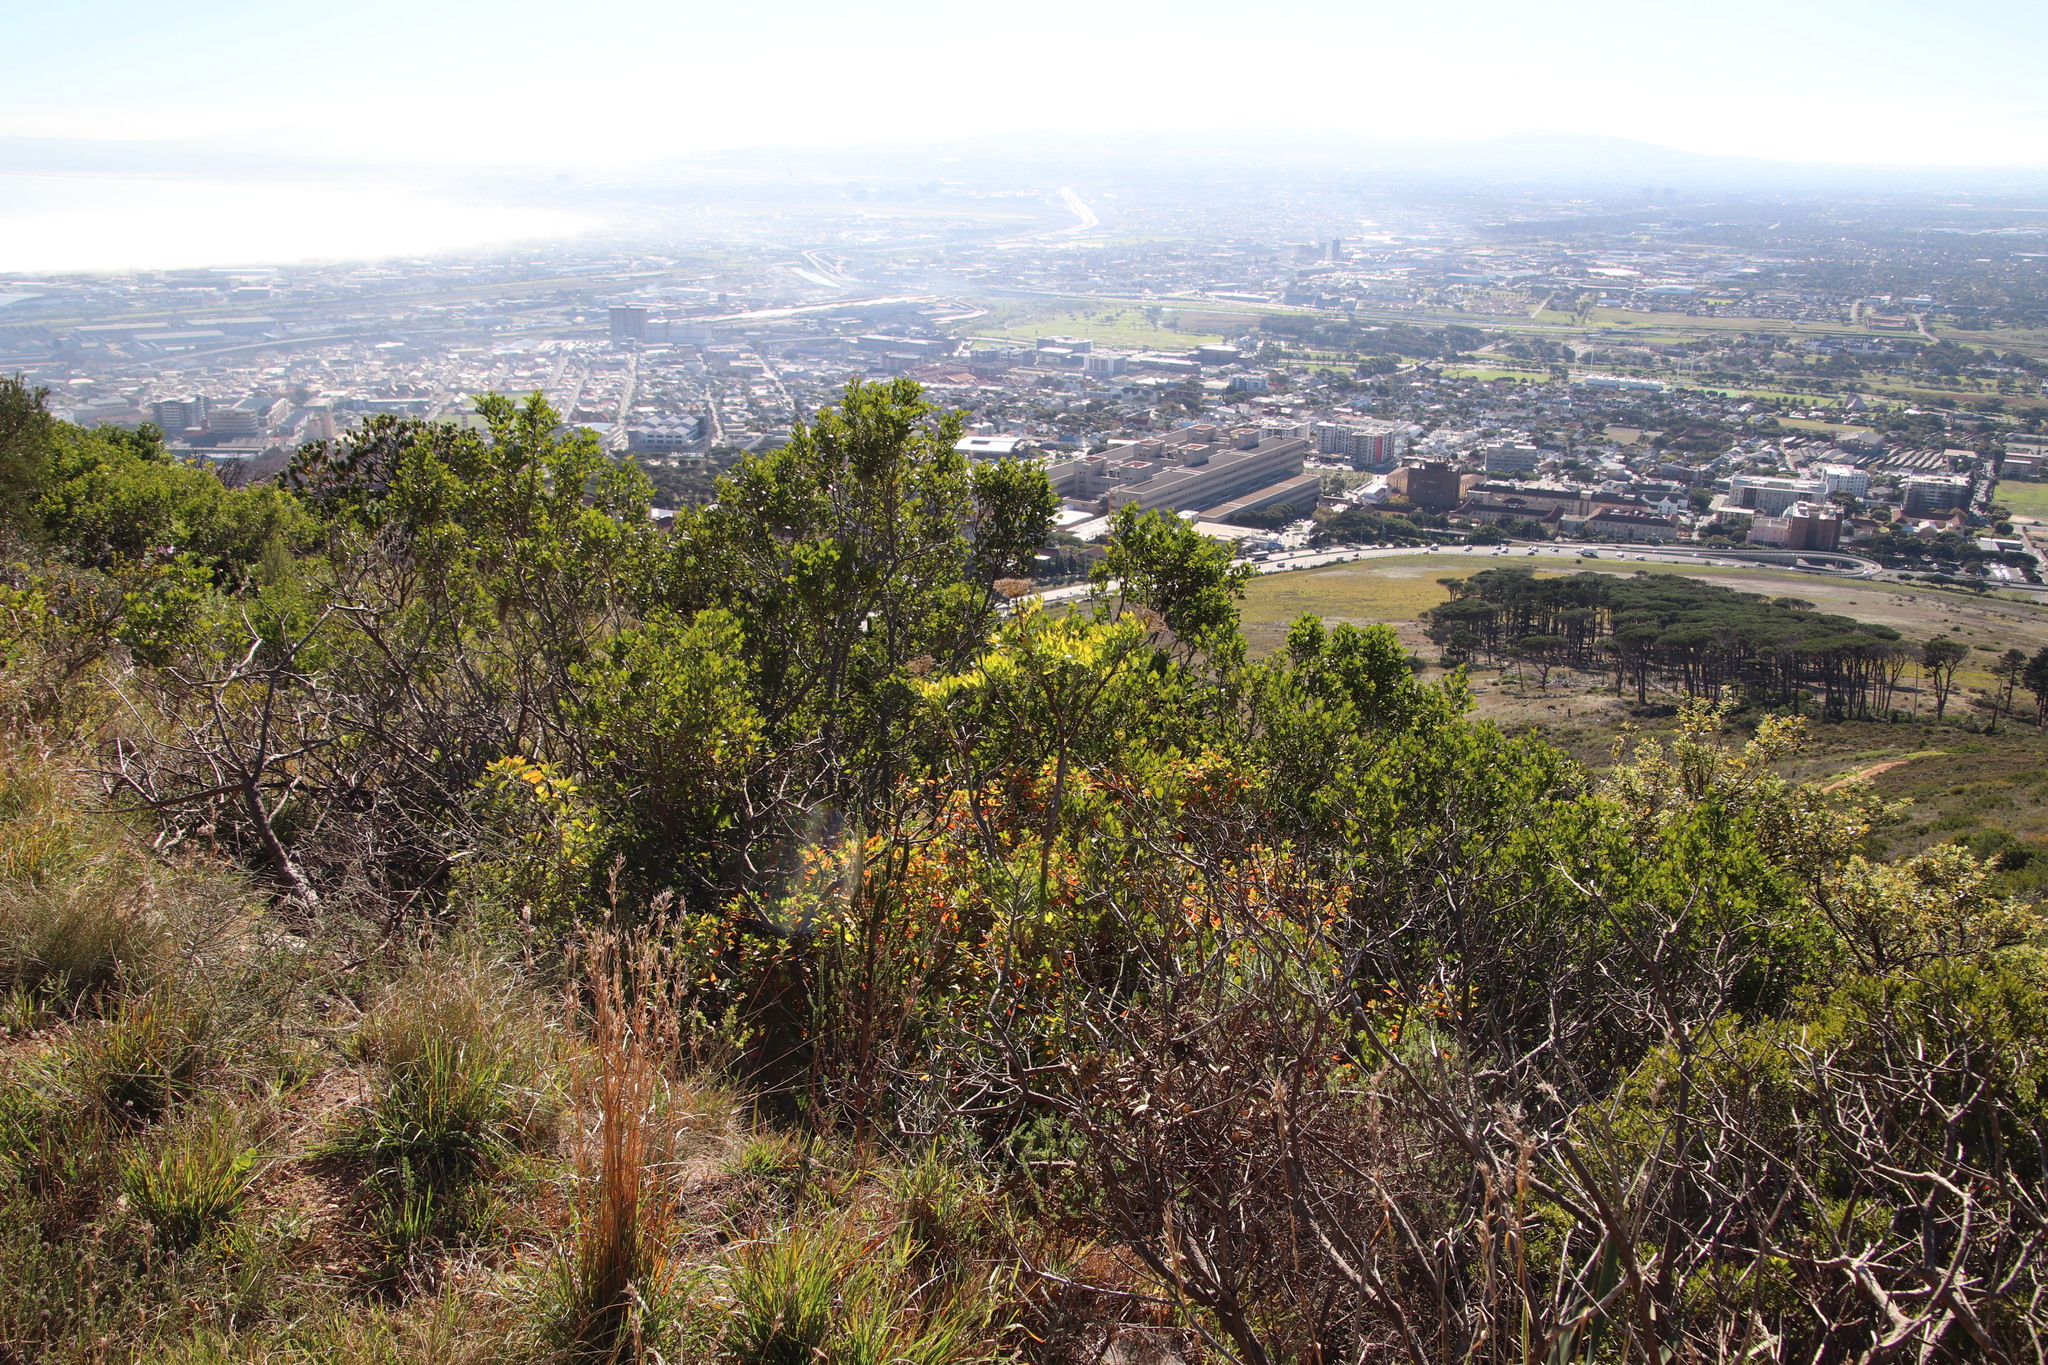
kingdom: Plantae
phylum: Tracheophyta
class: Magnoliopsida
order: Apiales
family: Apiaceae
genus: Notobubon
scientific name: Notobubon galbanum
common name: Blisterbush
